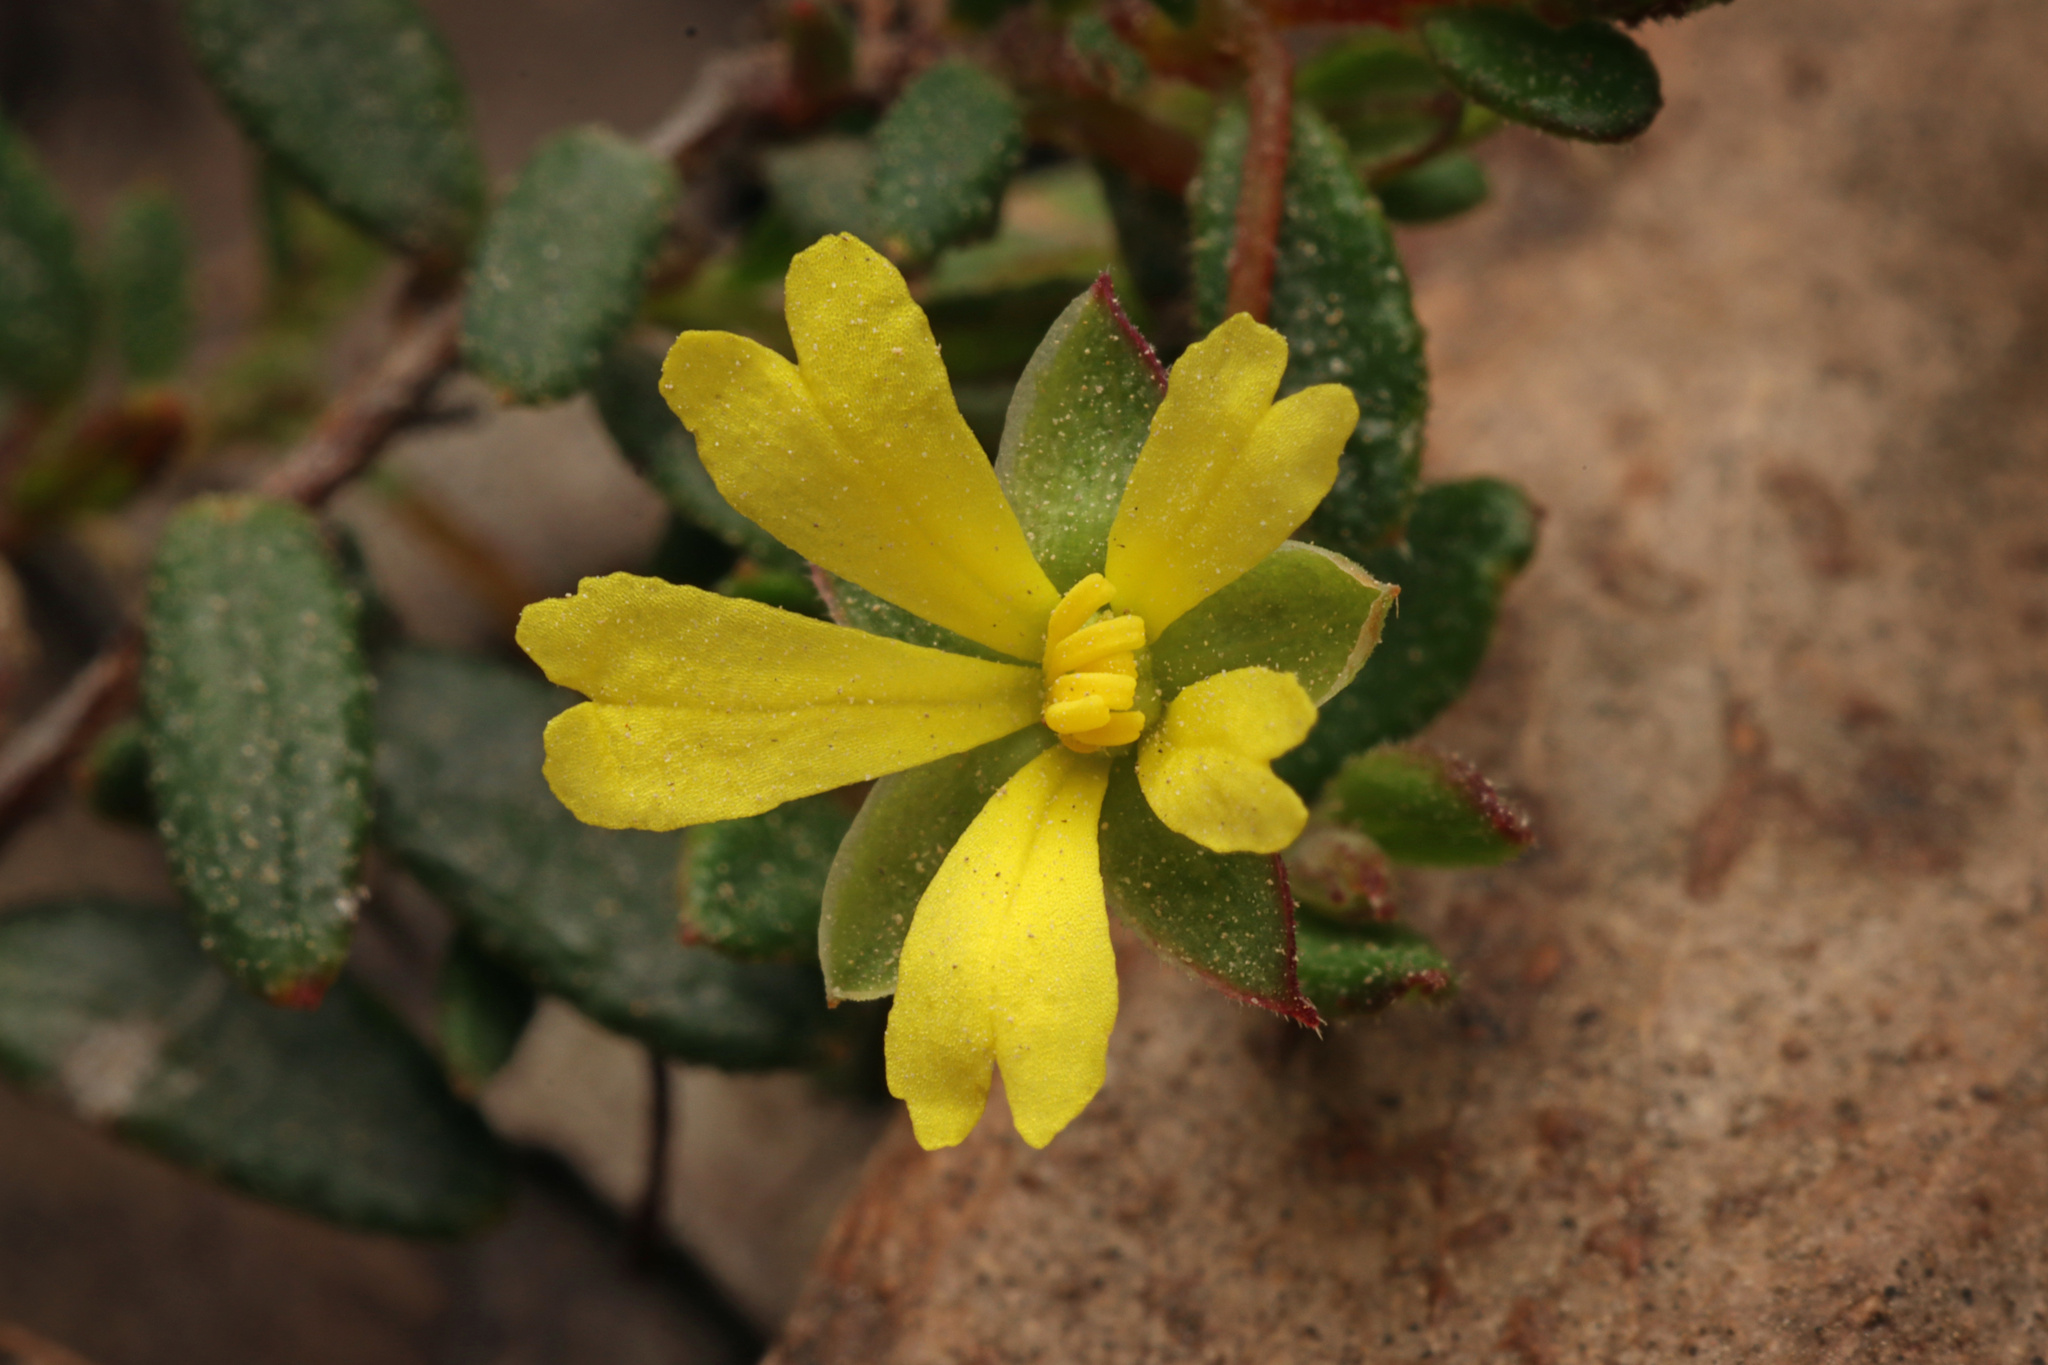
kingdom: Plantae
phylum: Tracheophyta
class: Magnoliopsida
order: Dilleniales
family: Dilleniaceae
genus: Hibbertia
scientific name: Hibbertia
